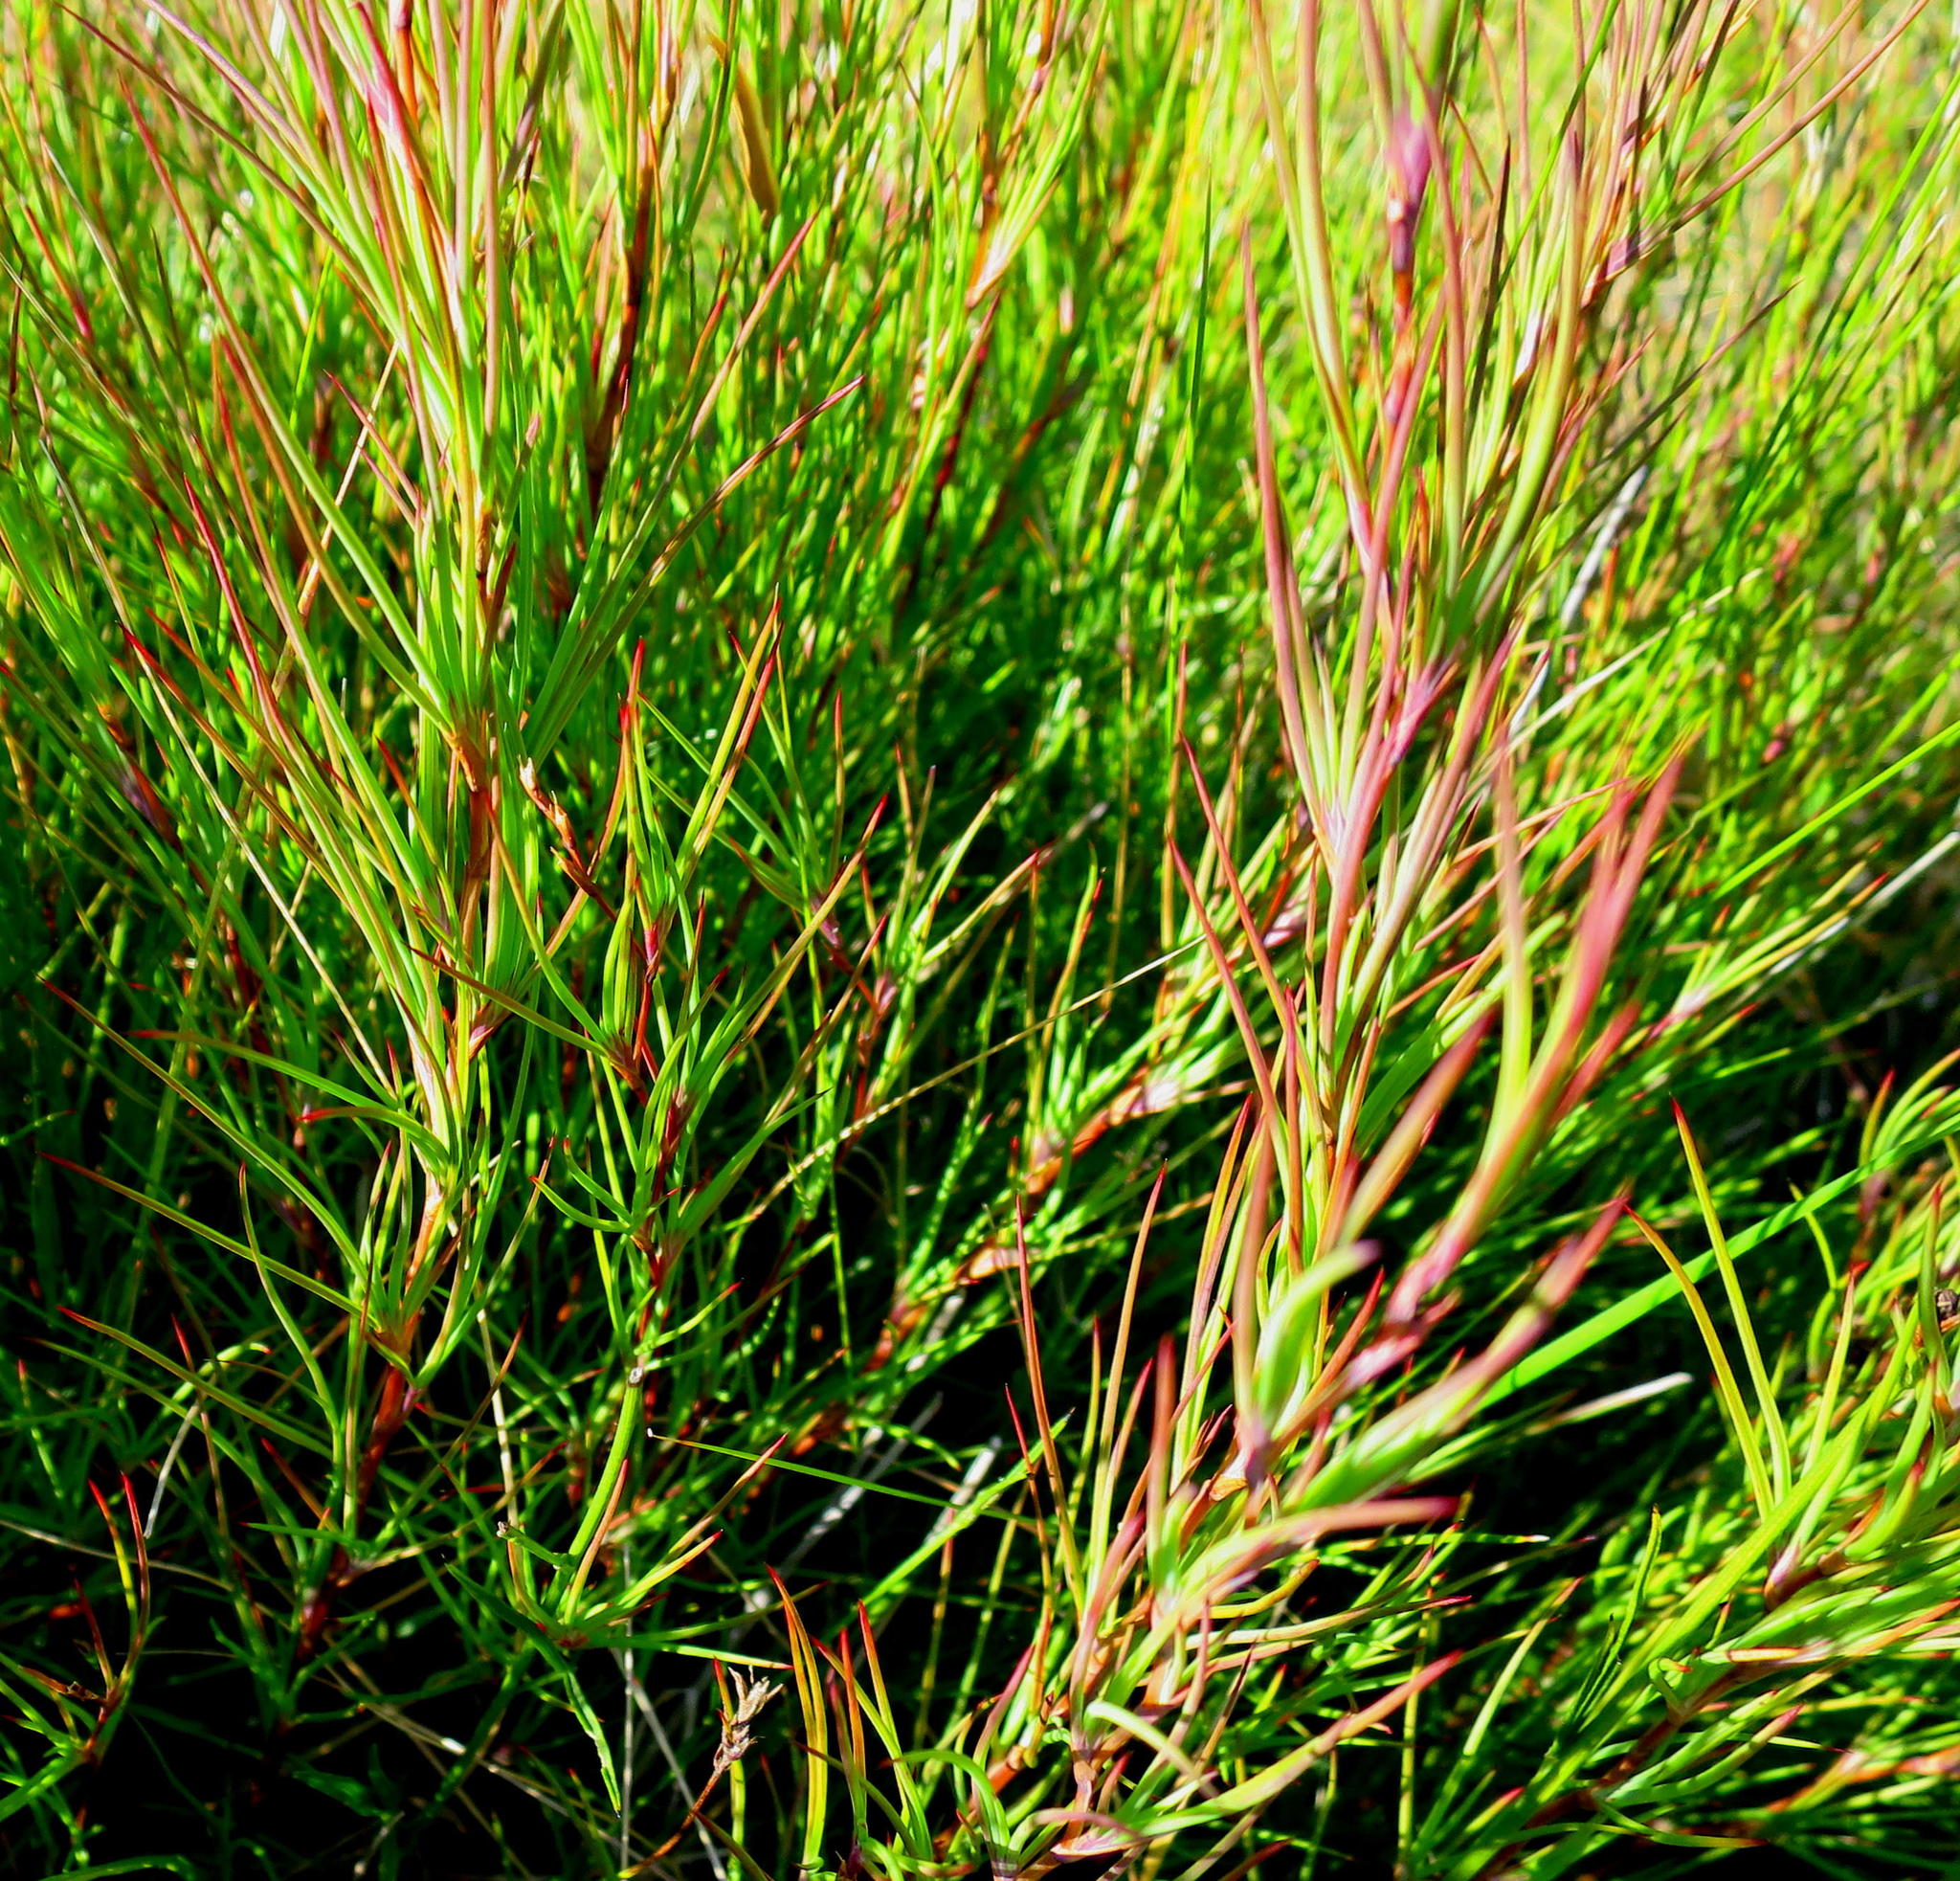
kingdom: Plantae
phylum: Tracheophyta
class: Magnoliopsida
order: Rosales
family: Rosaceae
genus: Cliffortia
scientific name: Cliffortia aculeata
